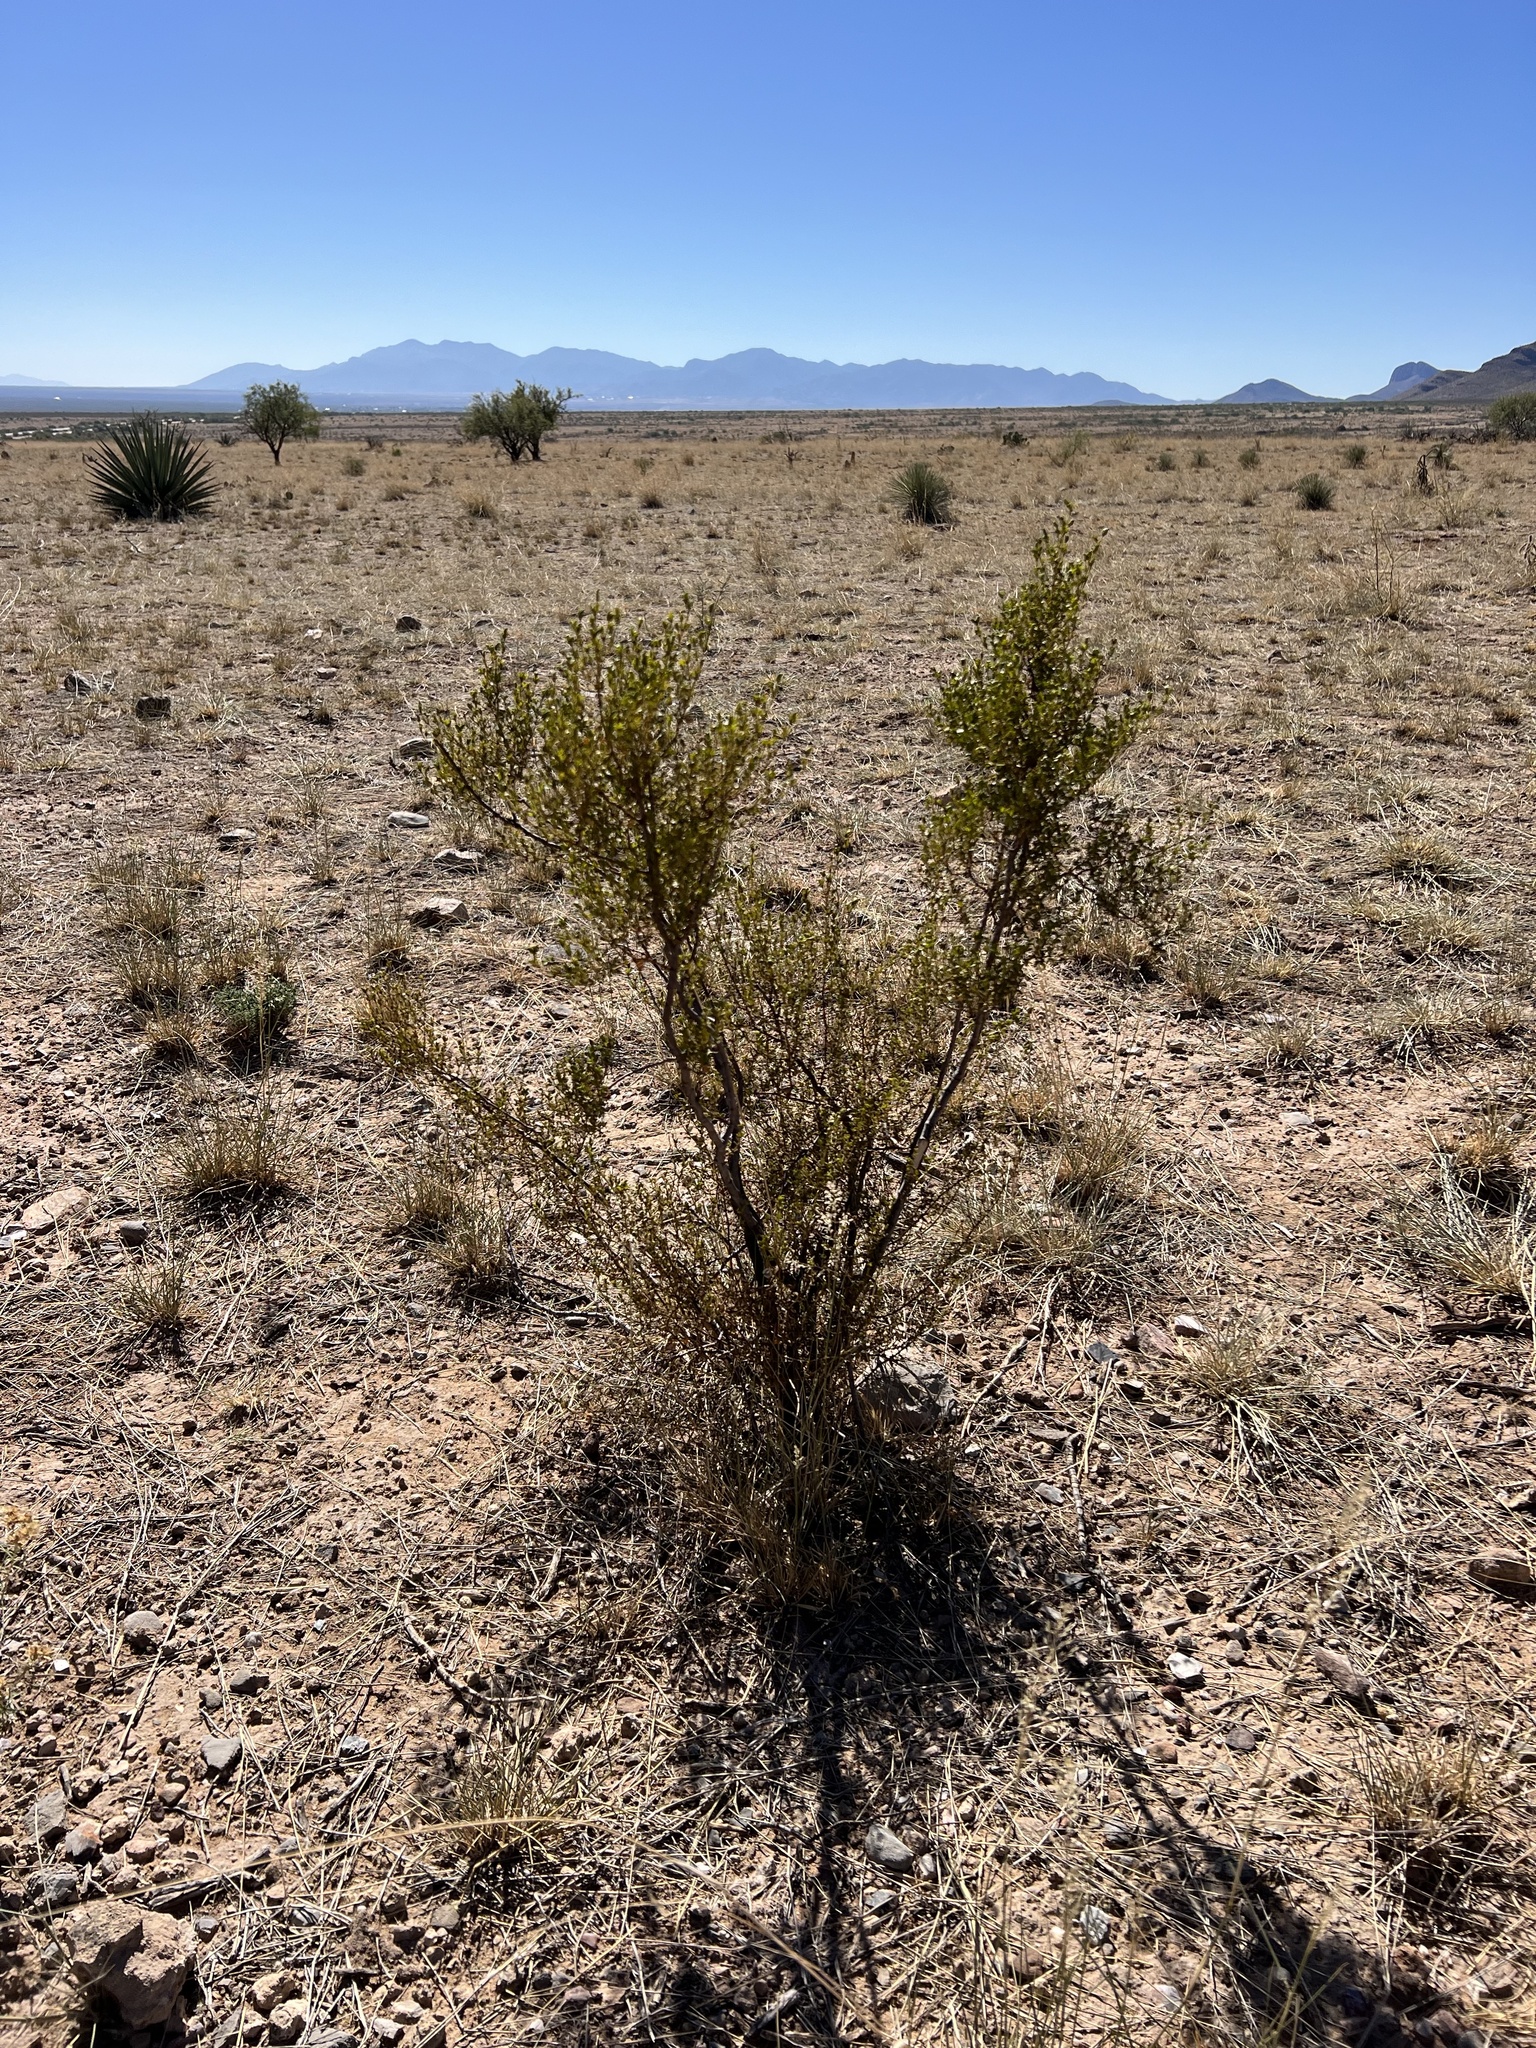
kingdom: Plantae
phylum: Tracheophyta
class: Magnoliopsida
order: Zygophyllales
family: Zygophyllaceae
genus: Larrea
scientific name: Larrea tridentata
